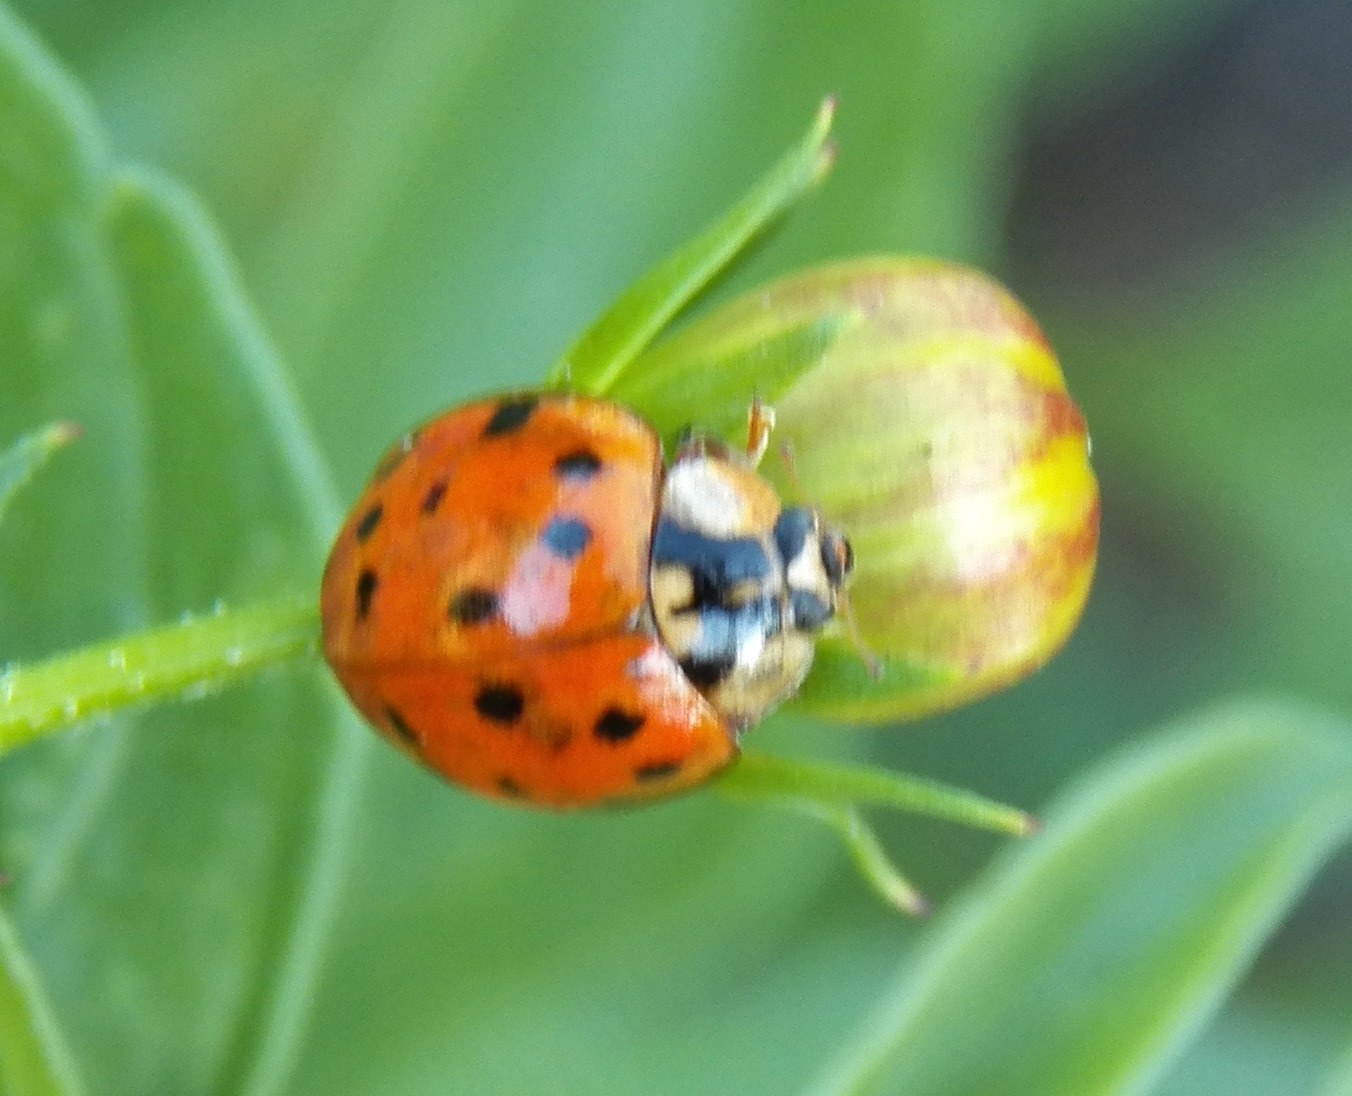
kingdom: Animalia
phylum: Arthropoda
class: Insecta
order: Coleoptera
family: Coccinellidae
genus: Harmonia
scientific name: Harmonia axyridis
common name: Harlequin ladybird
